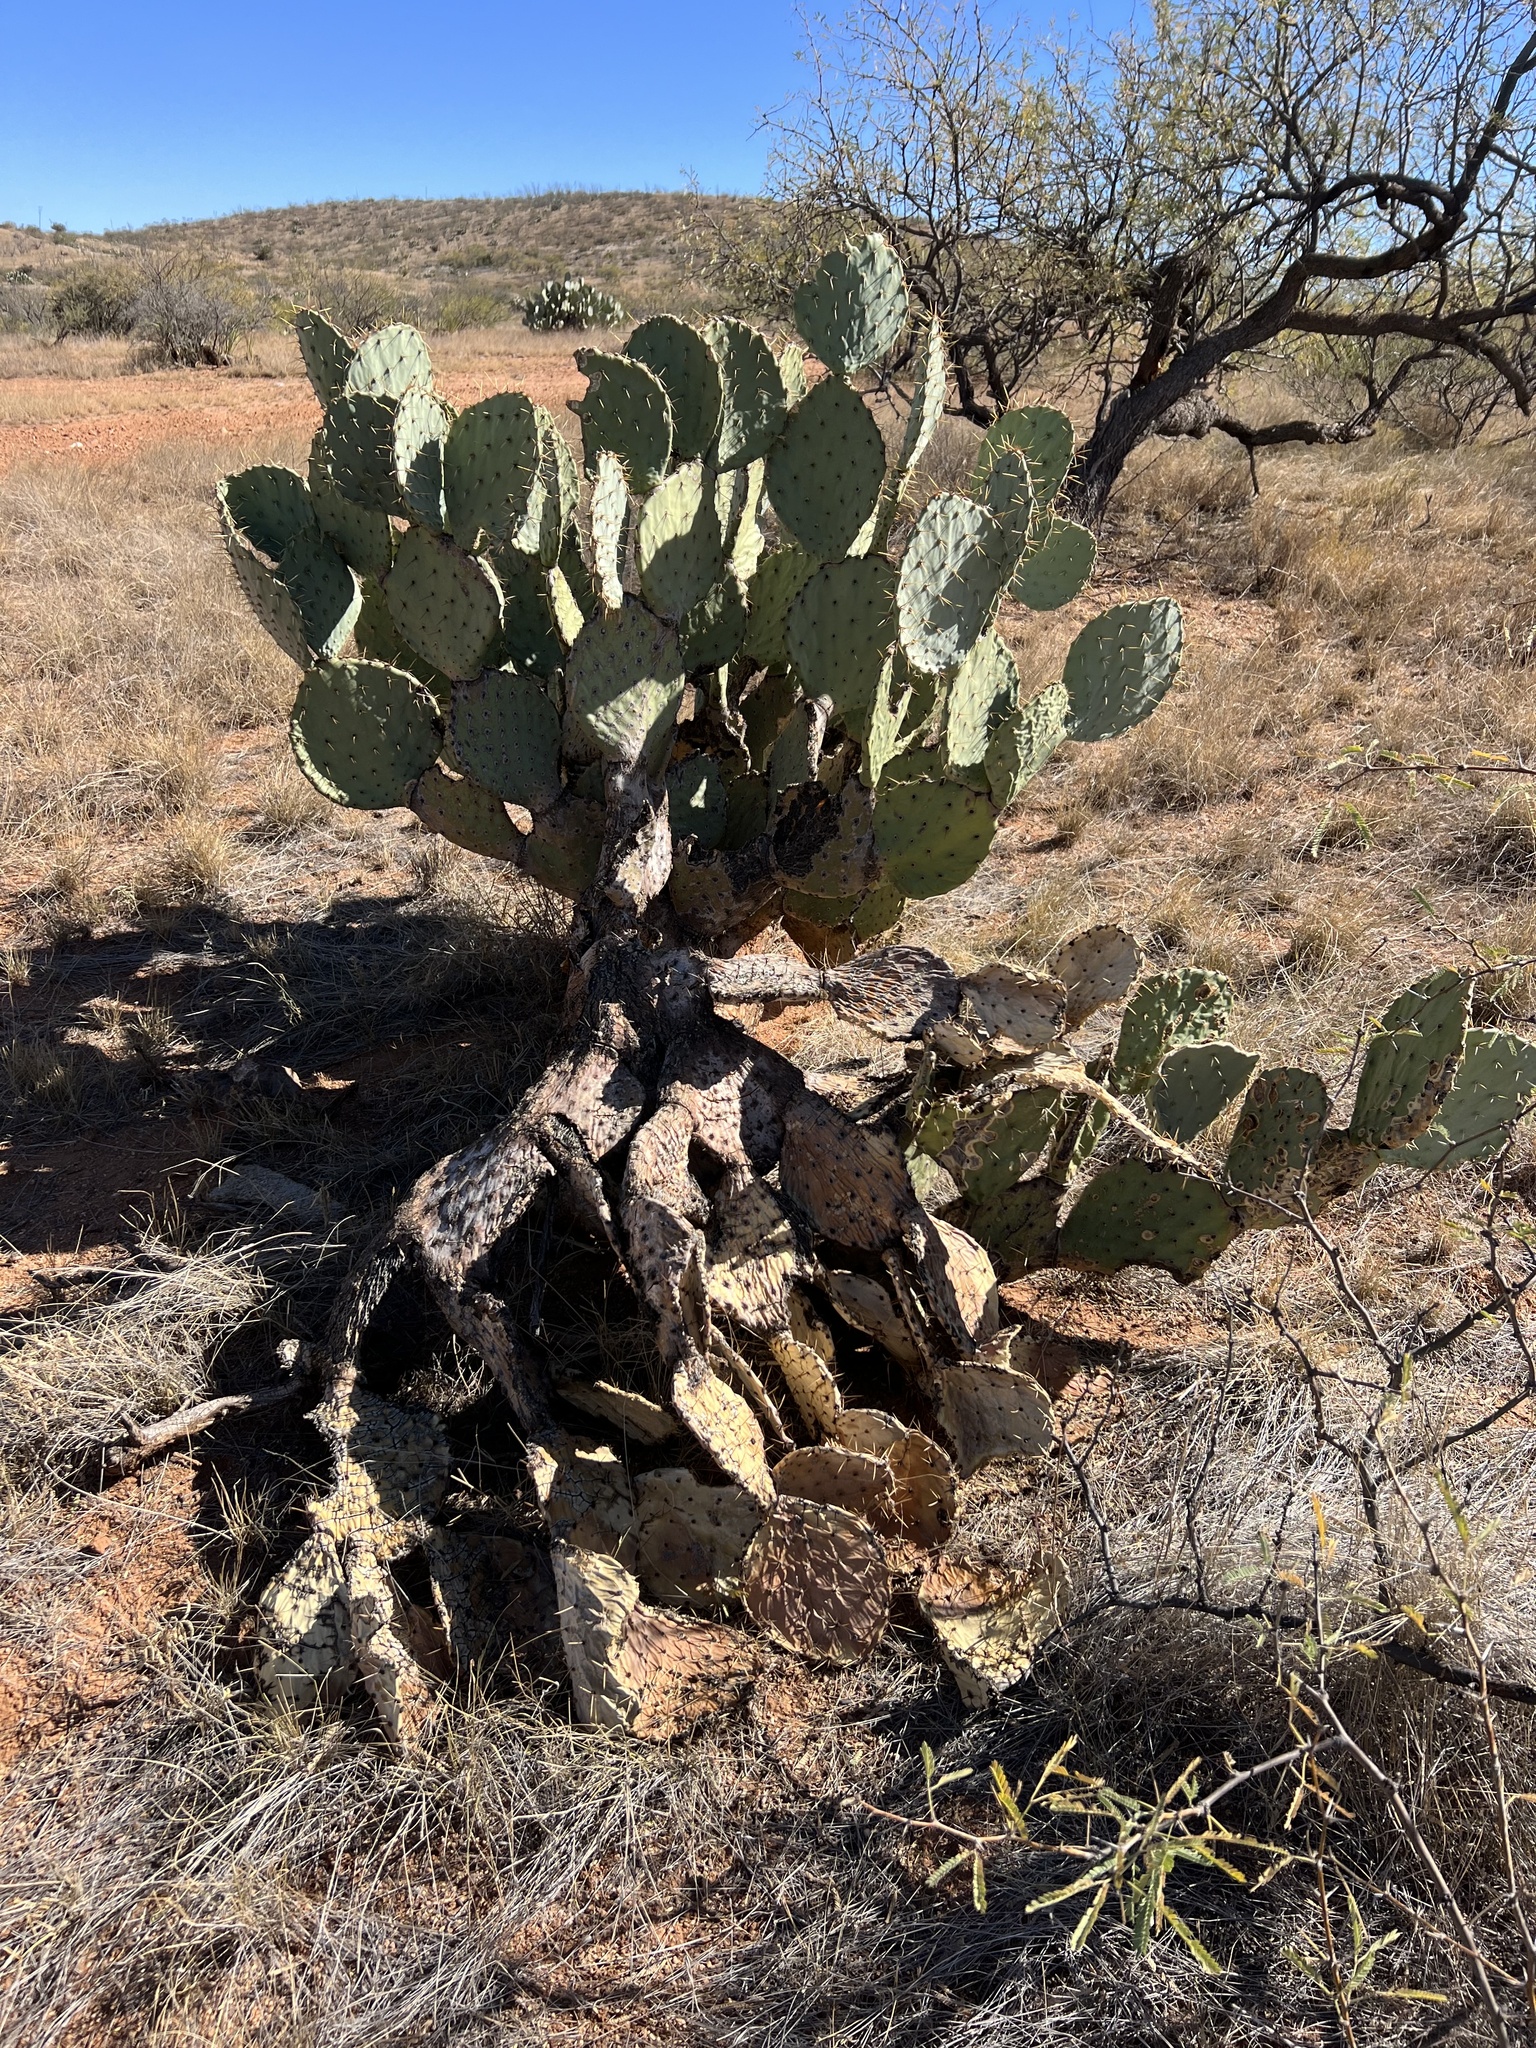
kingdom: Plantae
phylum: Tracheophyta
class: Magnoliopsida
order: Caryophyllales
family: Cactaceae
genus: Opuntia
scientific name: Opuntia engelmannii
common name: Cactus-apple
